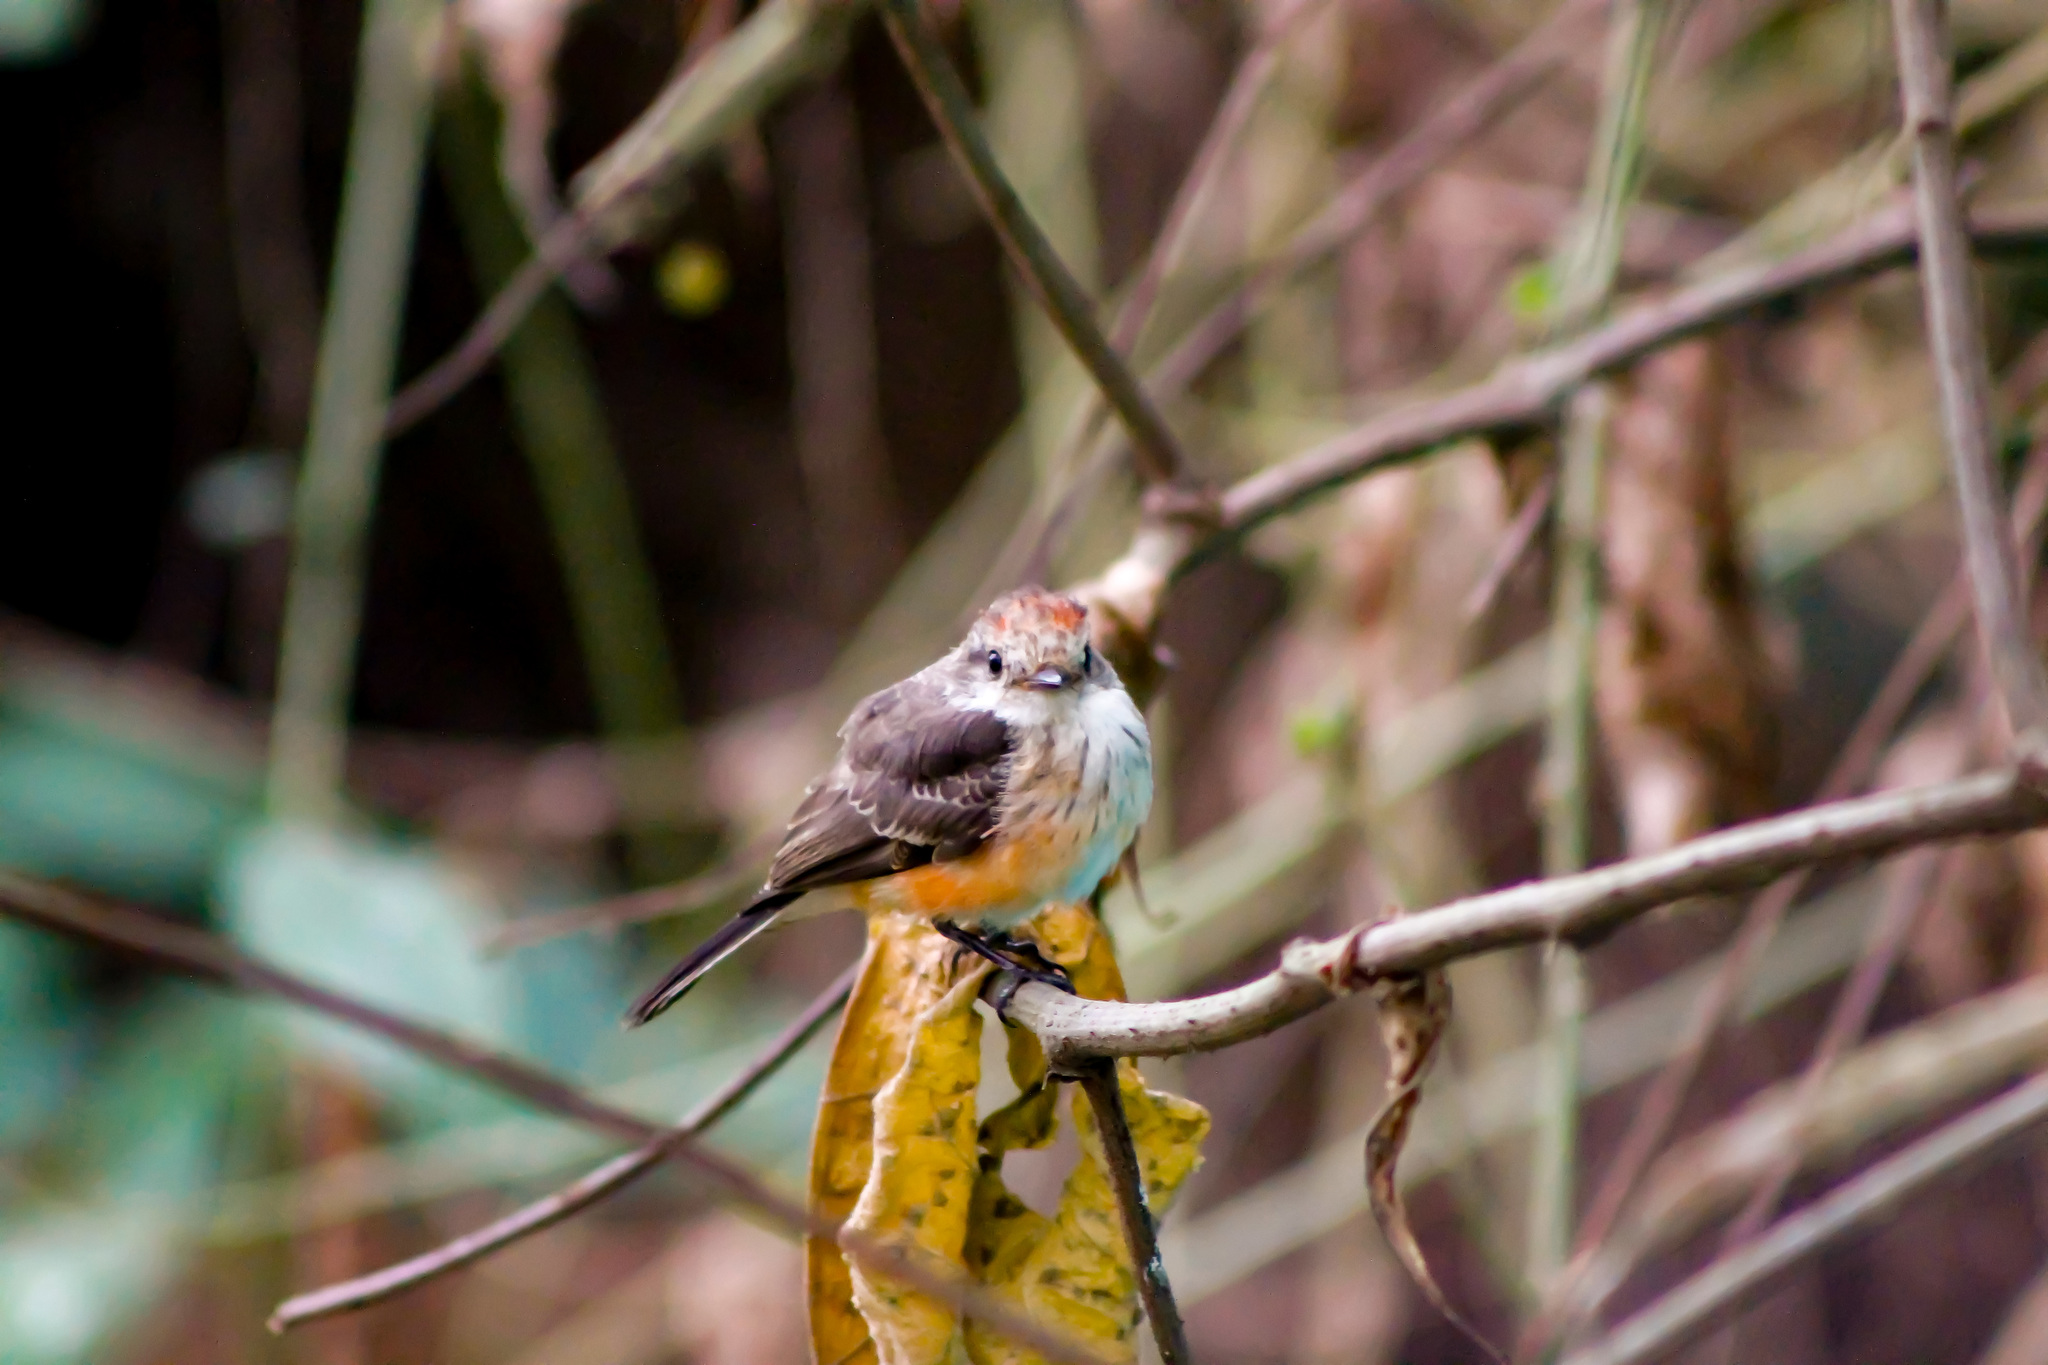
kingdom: Animalia
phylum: Chordata
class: Aves
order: Passeriformes
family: Tyrannidae
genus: Pyrocephalus
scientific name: Pyrocephalus rubinus
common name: Vermilion flycatcher
